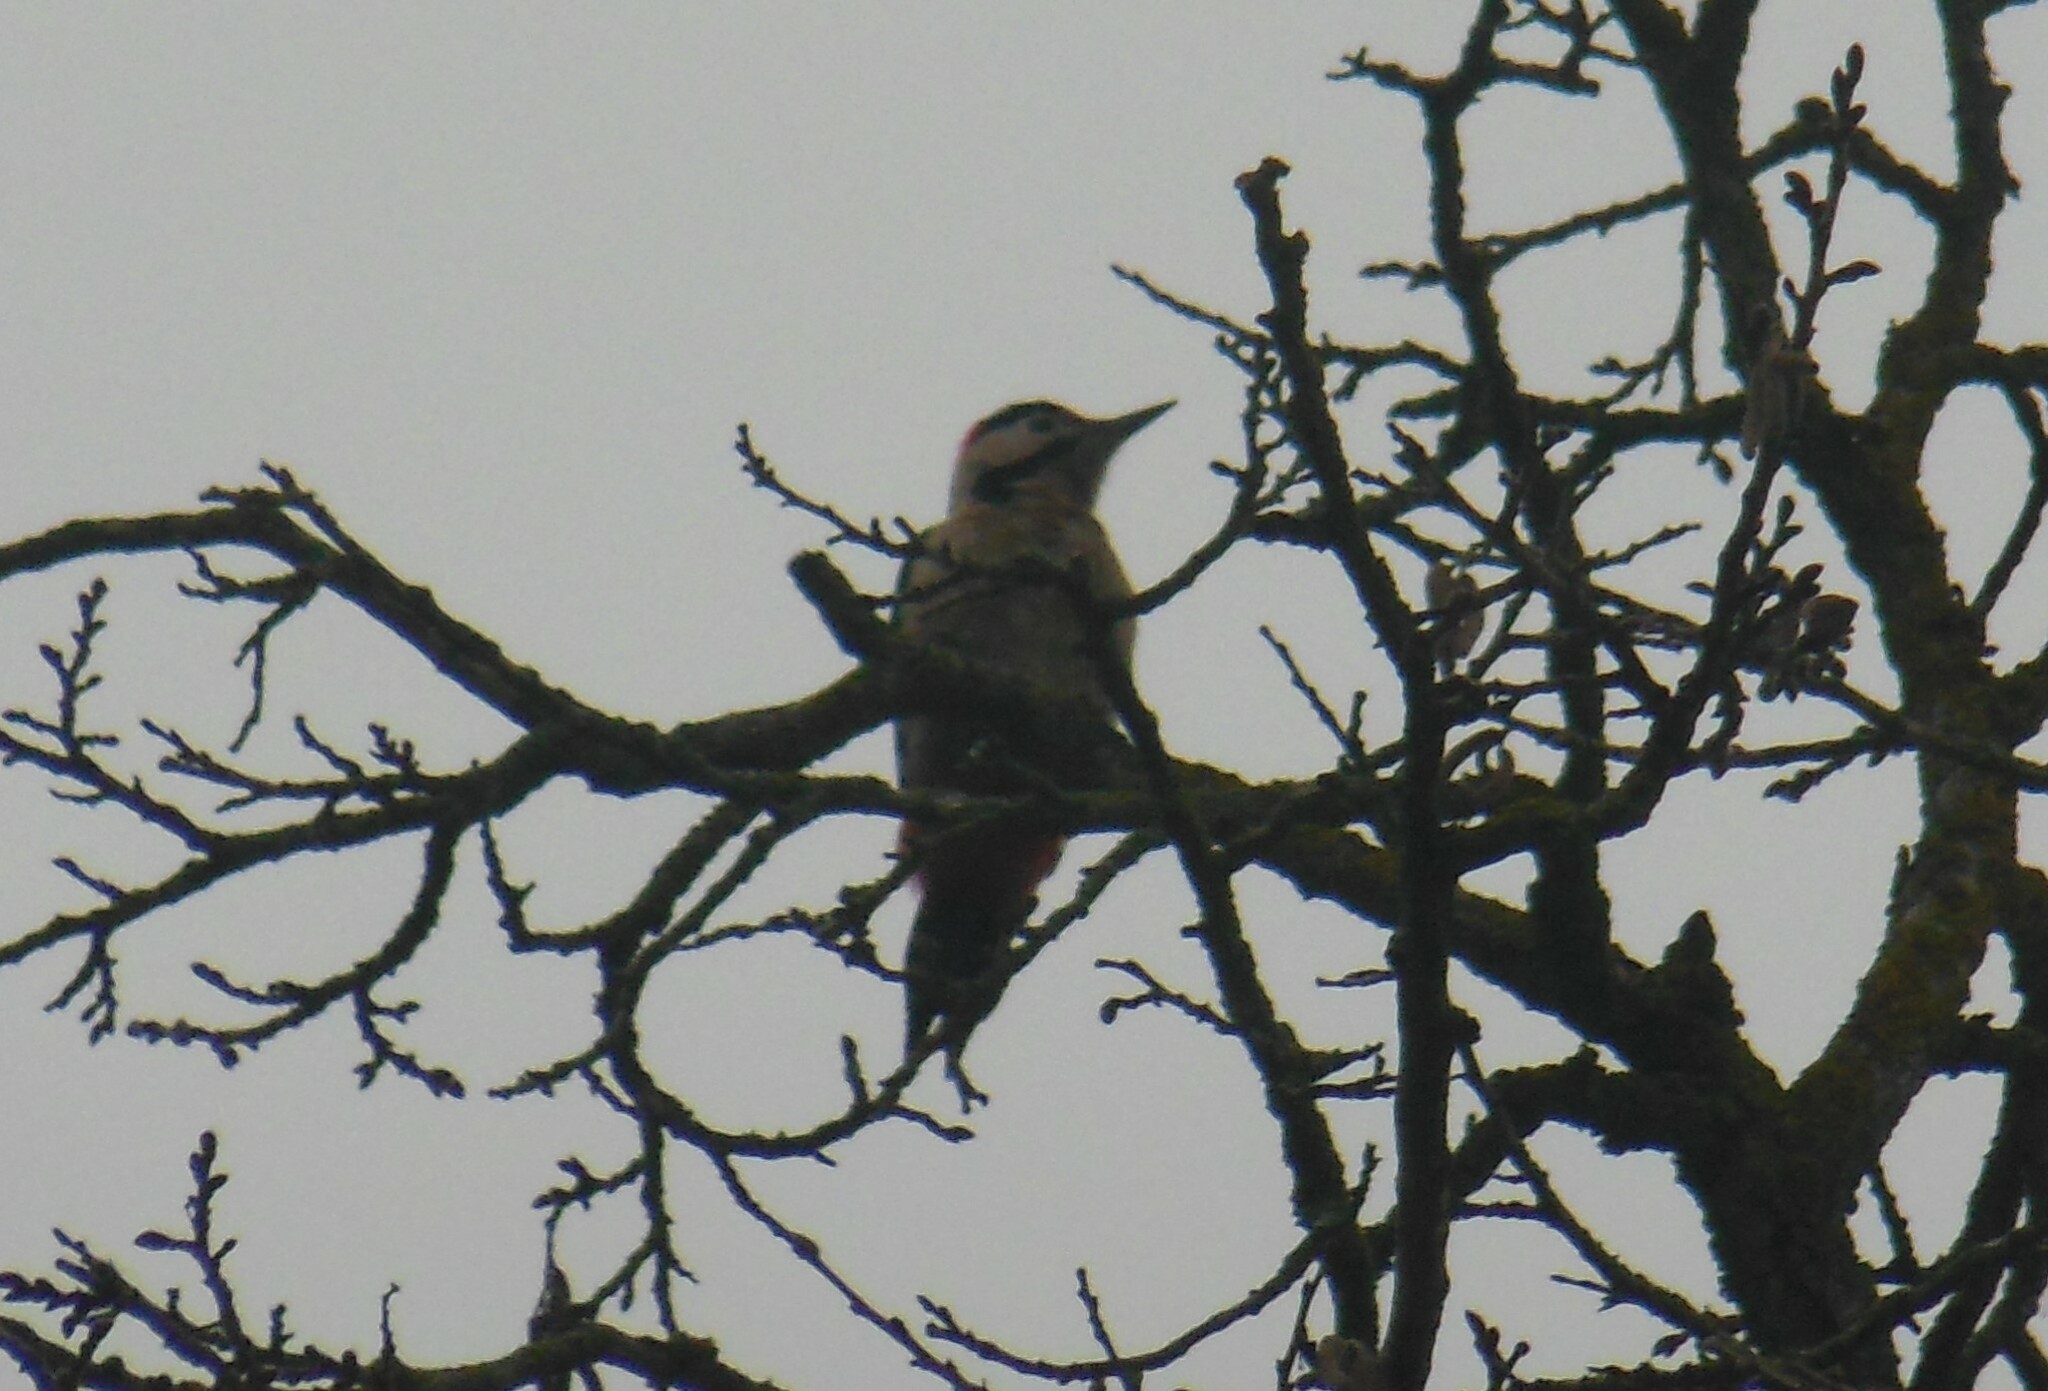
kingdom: Animalia
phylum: Chordata
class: Aves
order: Piciformes
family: Picidae
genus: Dendrocopos
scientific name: Dendrocopos syriacus
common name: Syrian woodpecker
